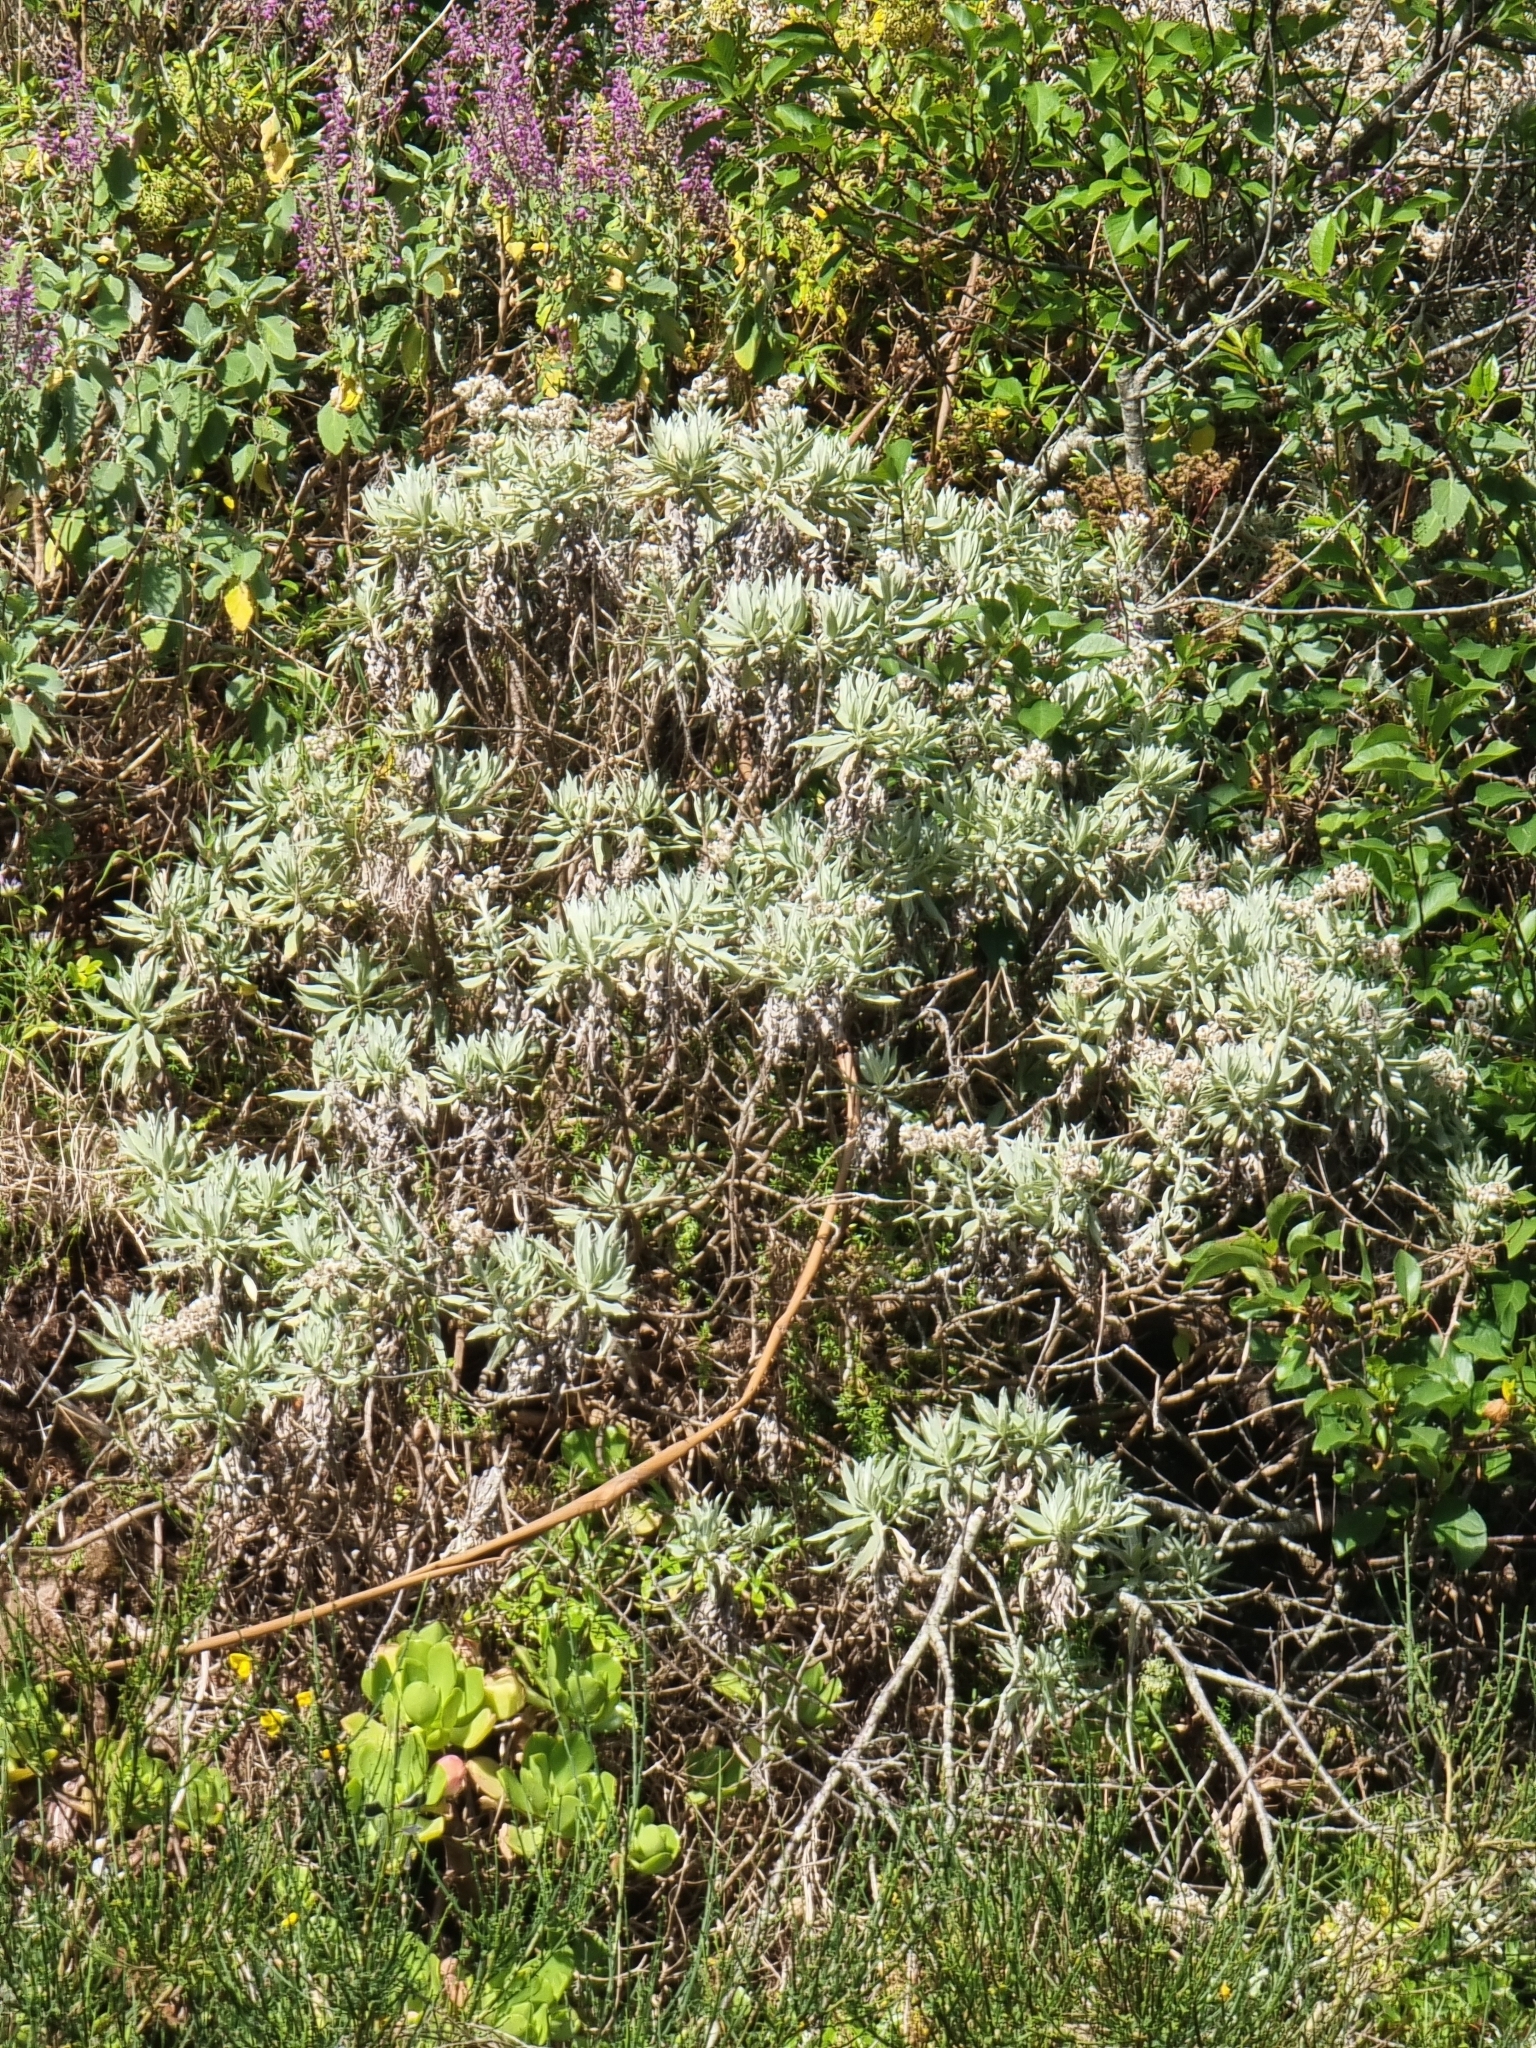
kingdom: Plantae
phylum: Tracheophyta
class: Magnoliopsida
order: Asterales
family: Asteraceae
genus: Helichrysum
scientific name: Helichrysum melaleucum
